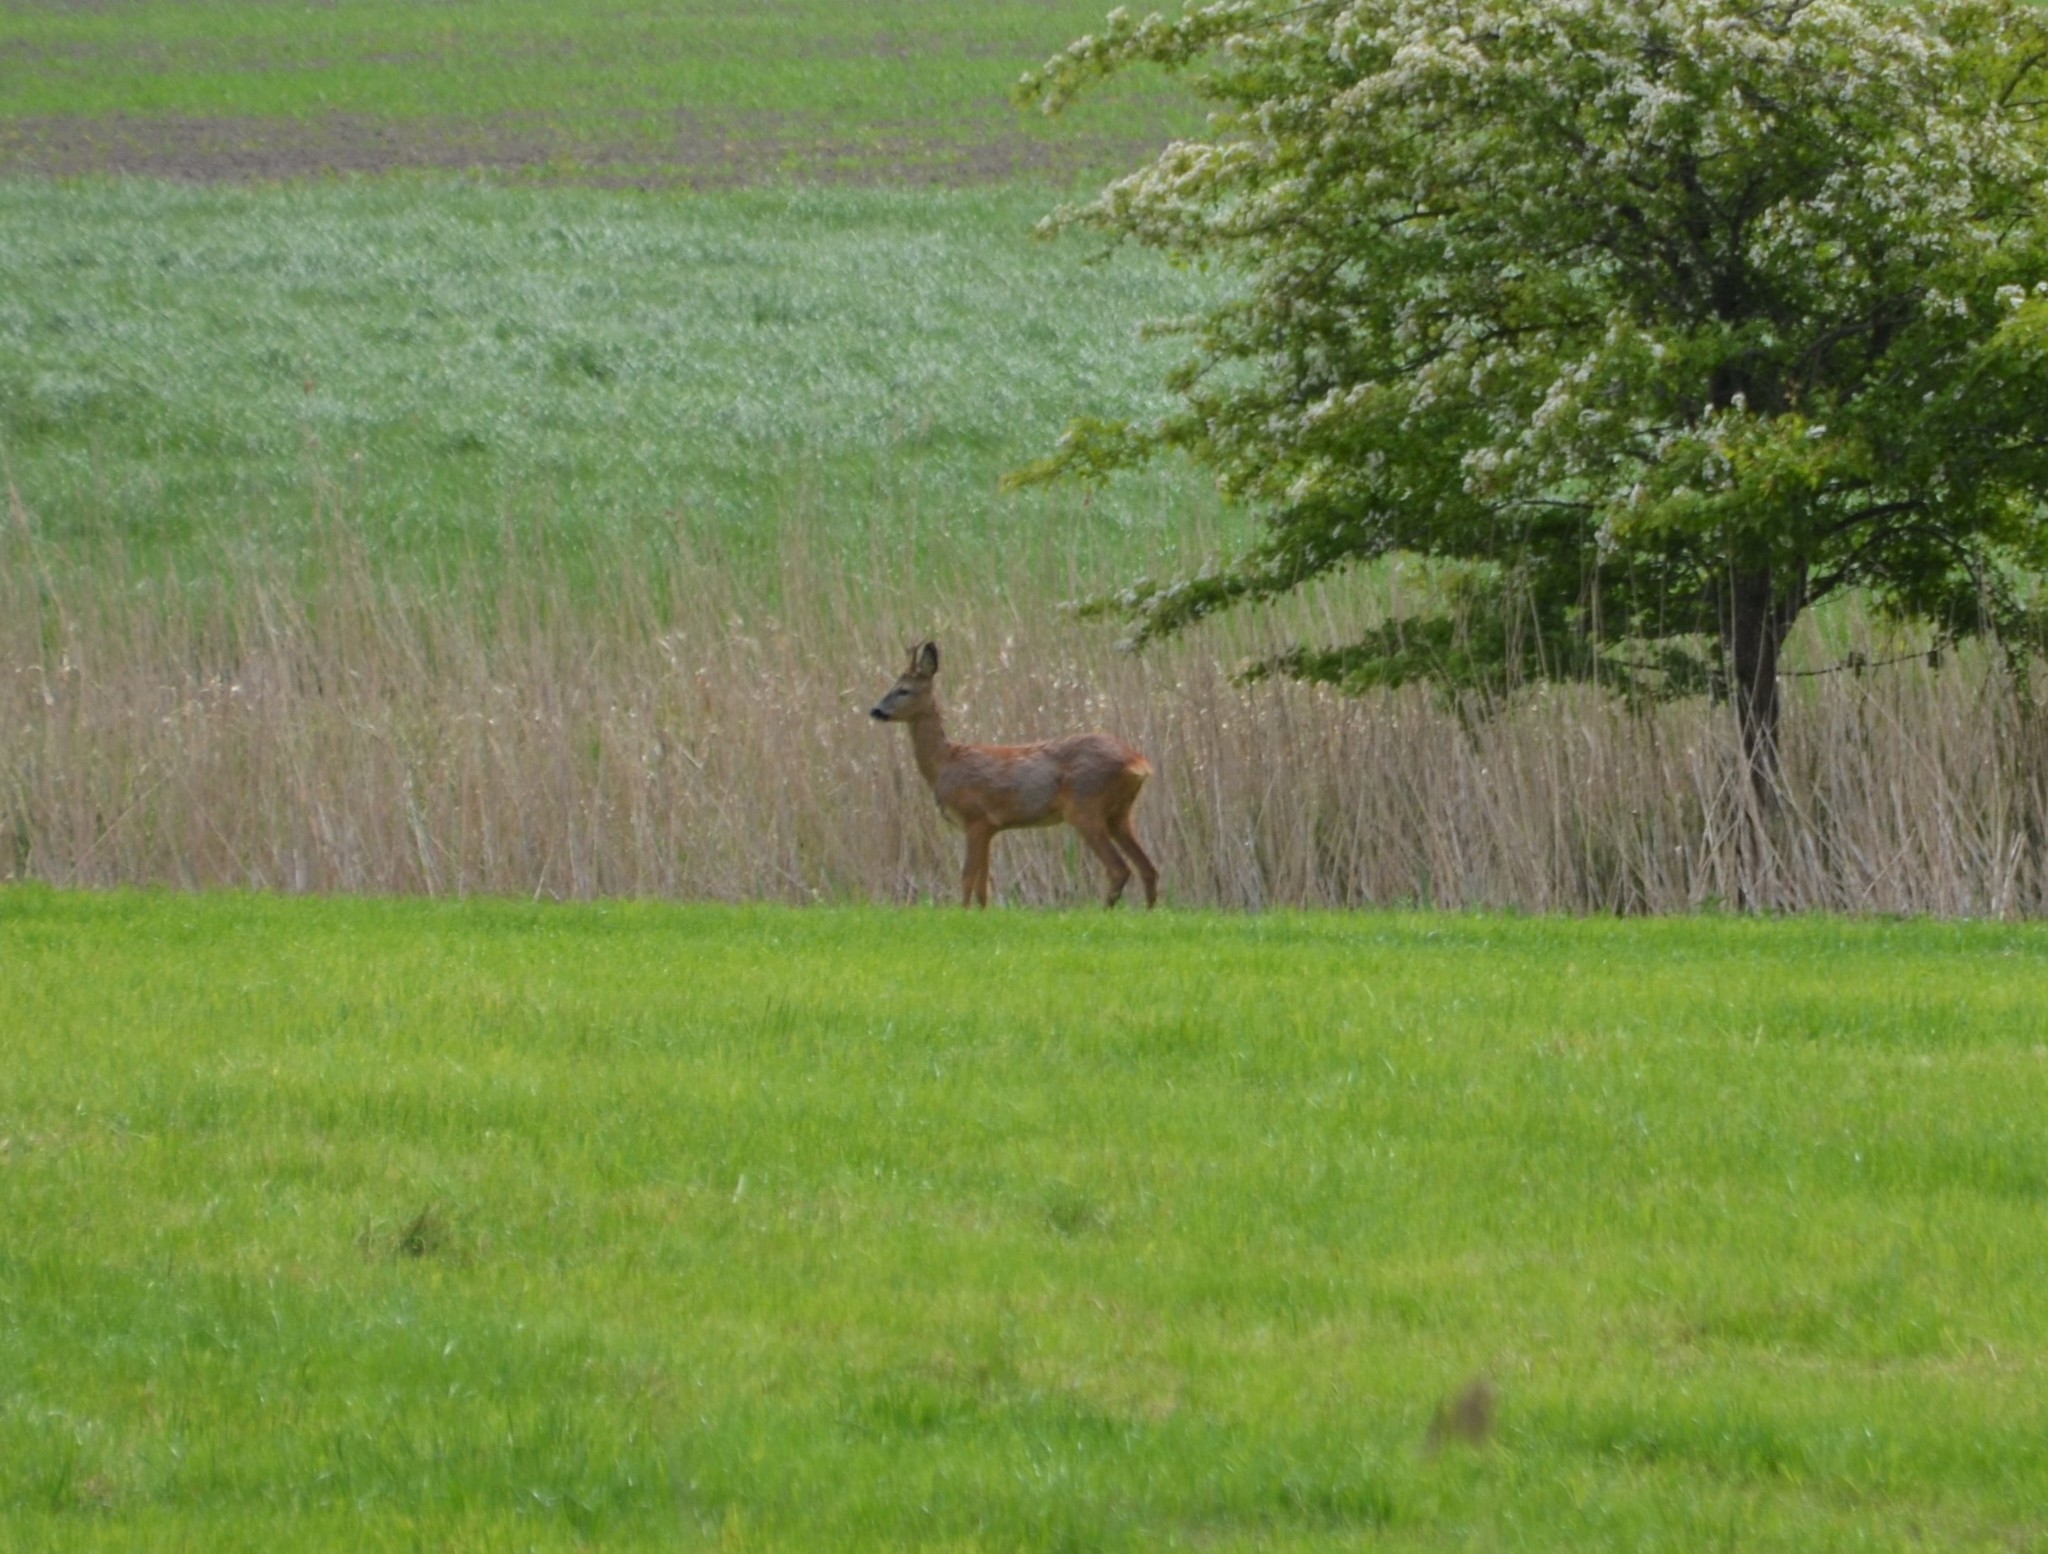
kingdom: Animalia
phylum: Chordata
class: Mammalia
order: Artiodactyla
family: Cervidae
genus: Capreolus
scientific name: Capreolus capreolus
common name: Western roe deer
